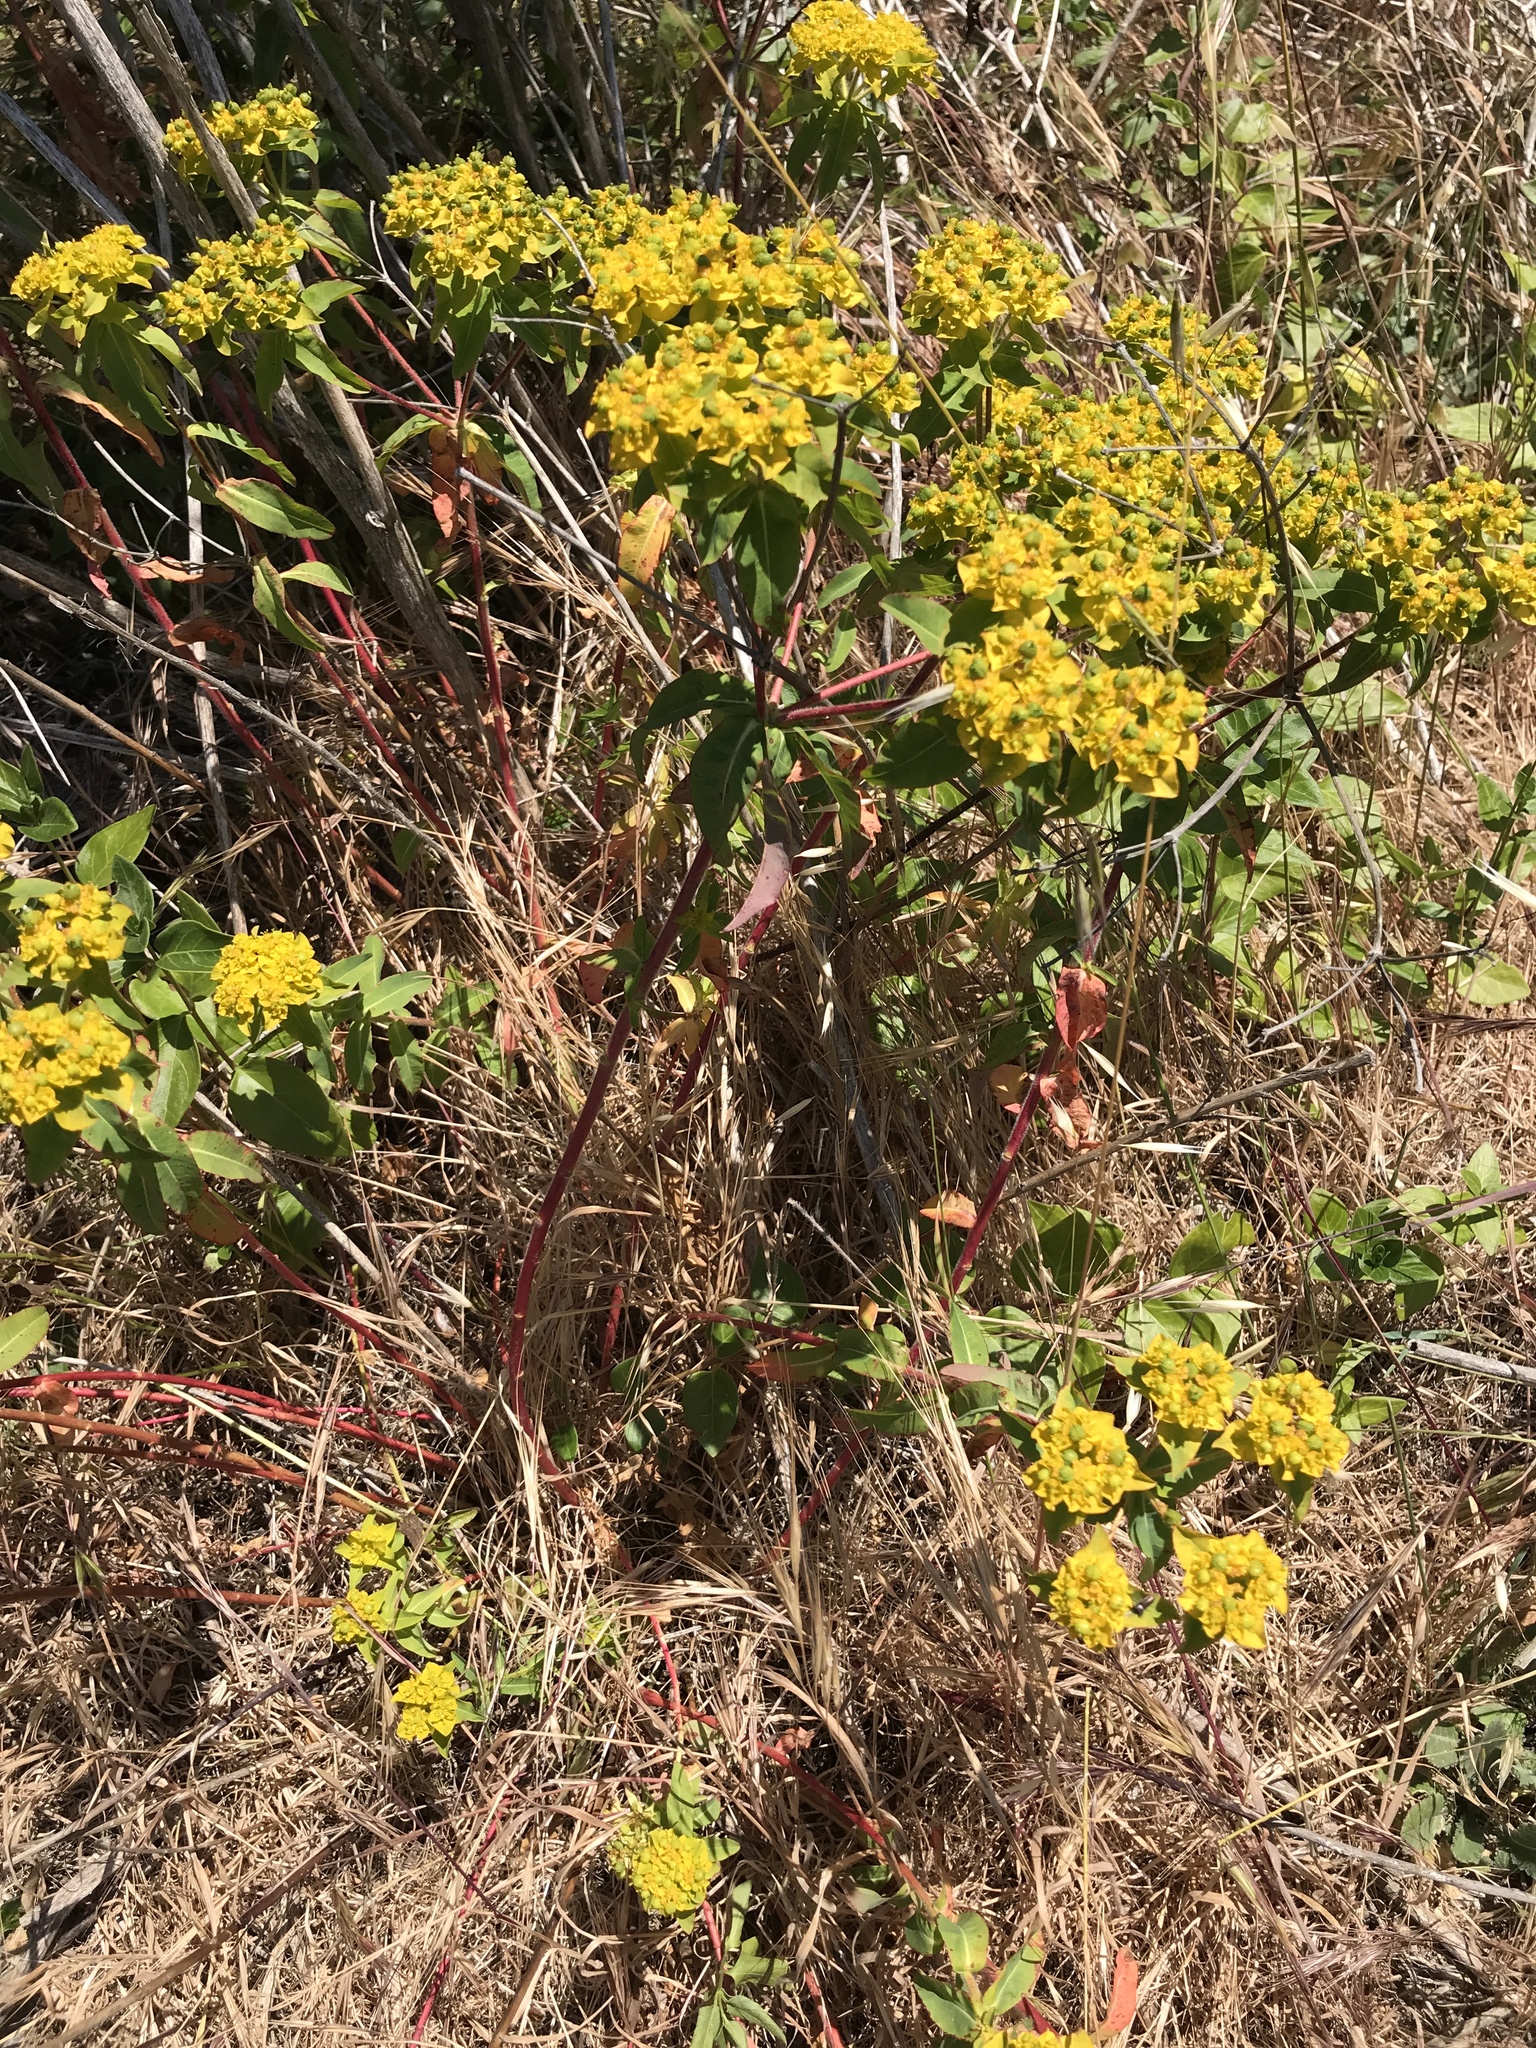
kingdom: Plantae
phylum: Tracheophyta
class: Magnoliopsida
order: Malpighiales
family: Euphorbiaceae
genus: Euphorbia
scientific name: Euphorbia oblongata
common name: Balkan spurge
